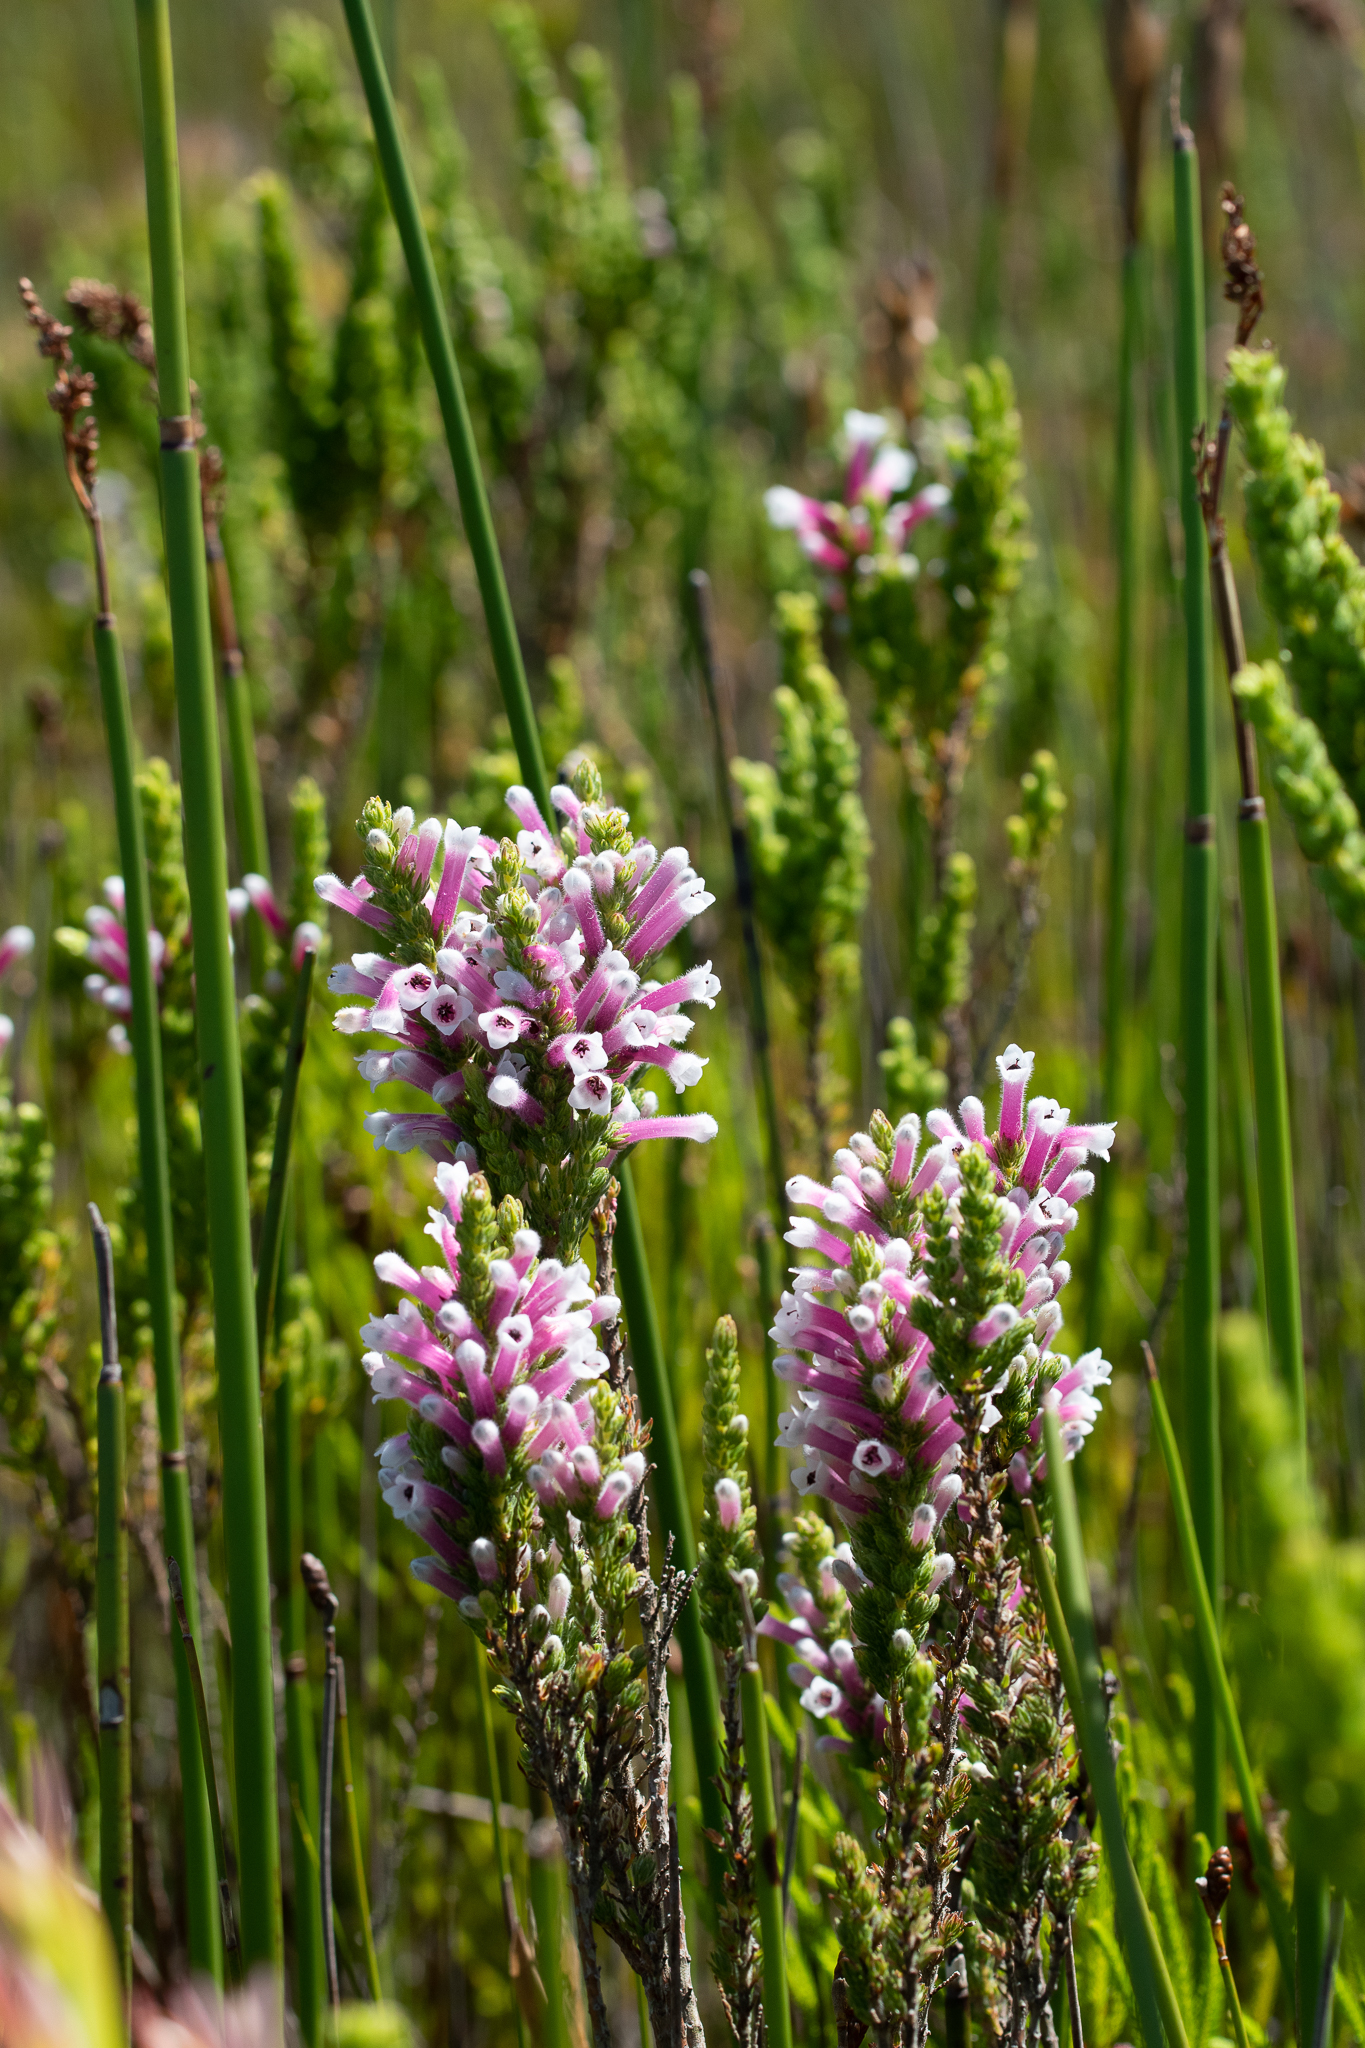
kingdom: Plantae
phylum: Tracheophyta
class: Magnoliopsida
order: Ericales
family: Ericaceae
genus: Erica
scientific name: Erica macowanii
